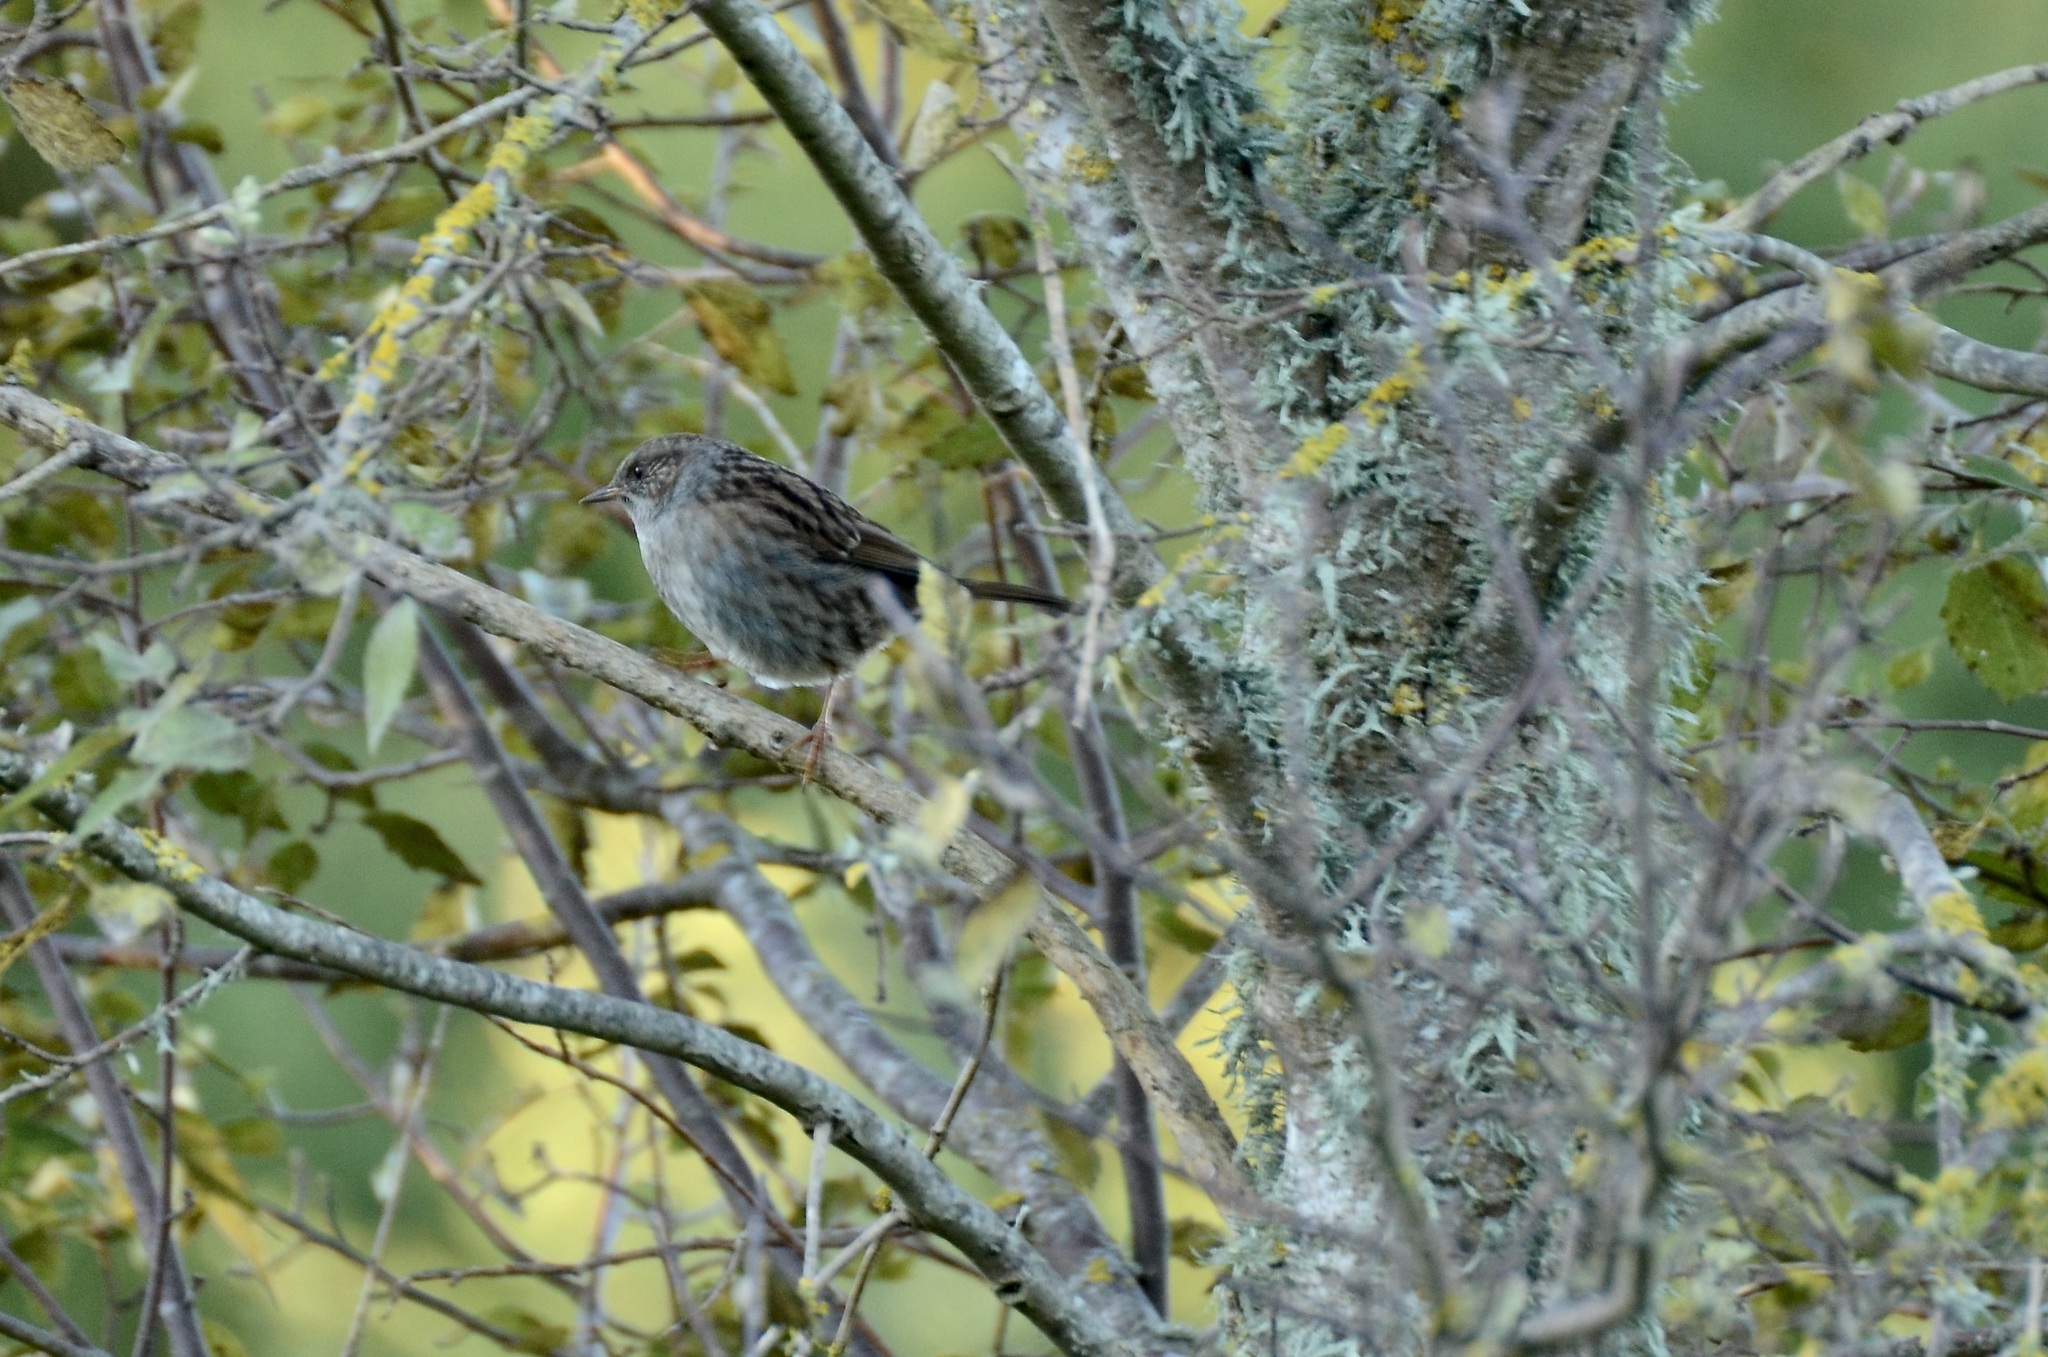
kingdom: Animalia
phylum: Chordata
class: Aves
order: Passeriformes
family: Prunellidae
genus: Prunella
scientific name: Prunella modularis
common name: Dunnock
